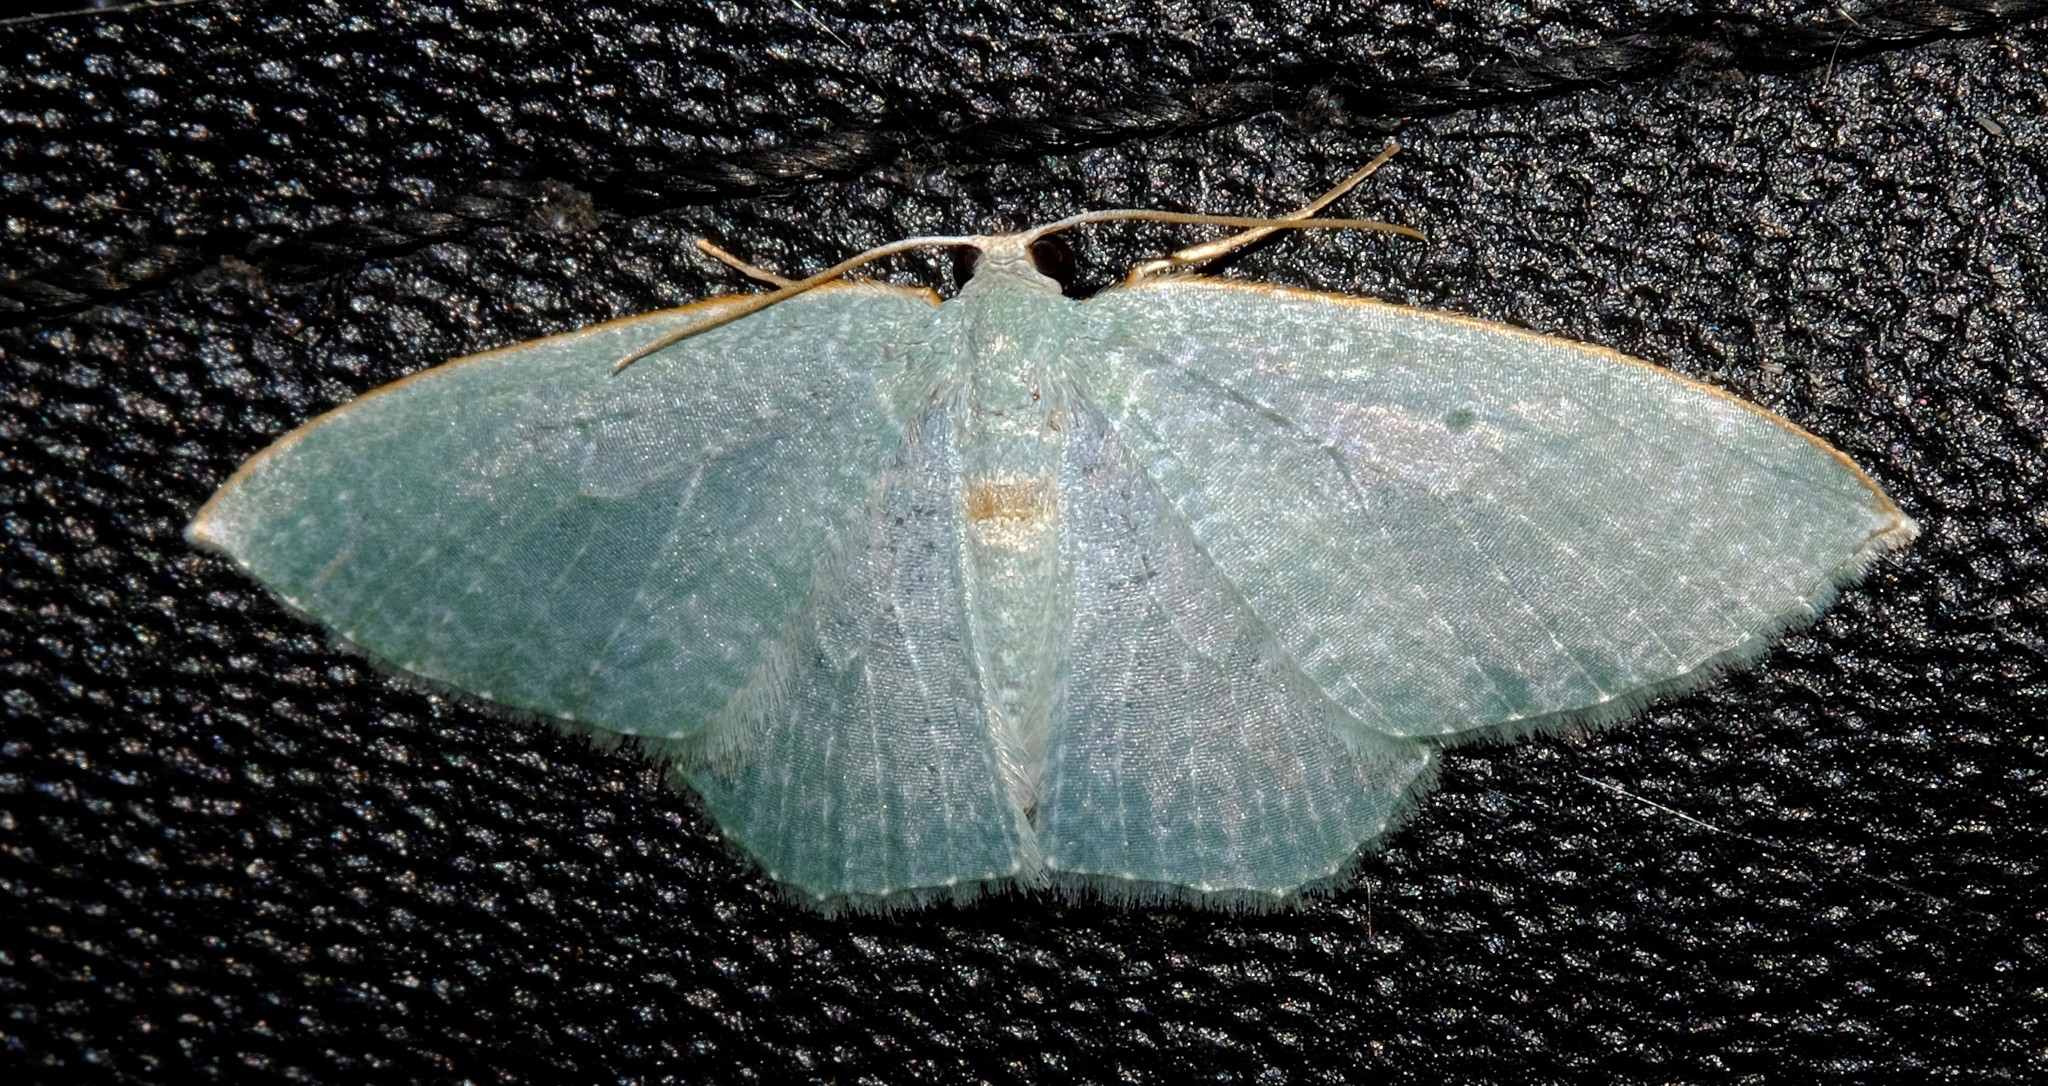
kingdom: Animalia
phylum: Arthropoda
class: Insecta
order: Lepidoptera
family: Geometridae
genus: Poecilasthena
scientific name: Poecilasthena thalassias
